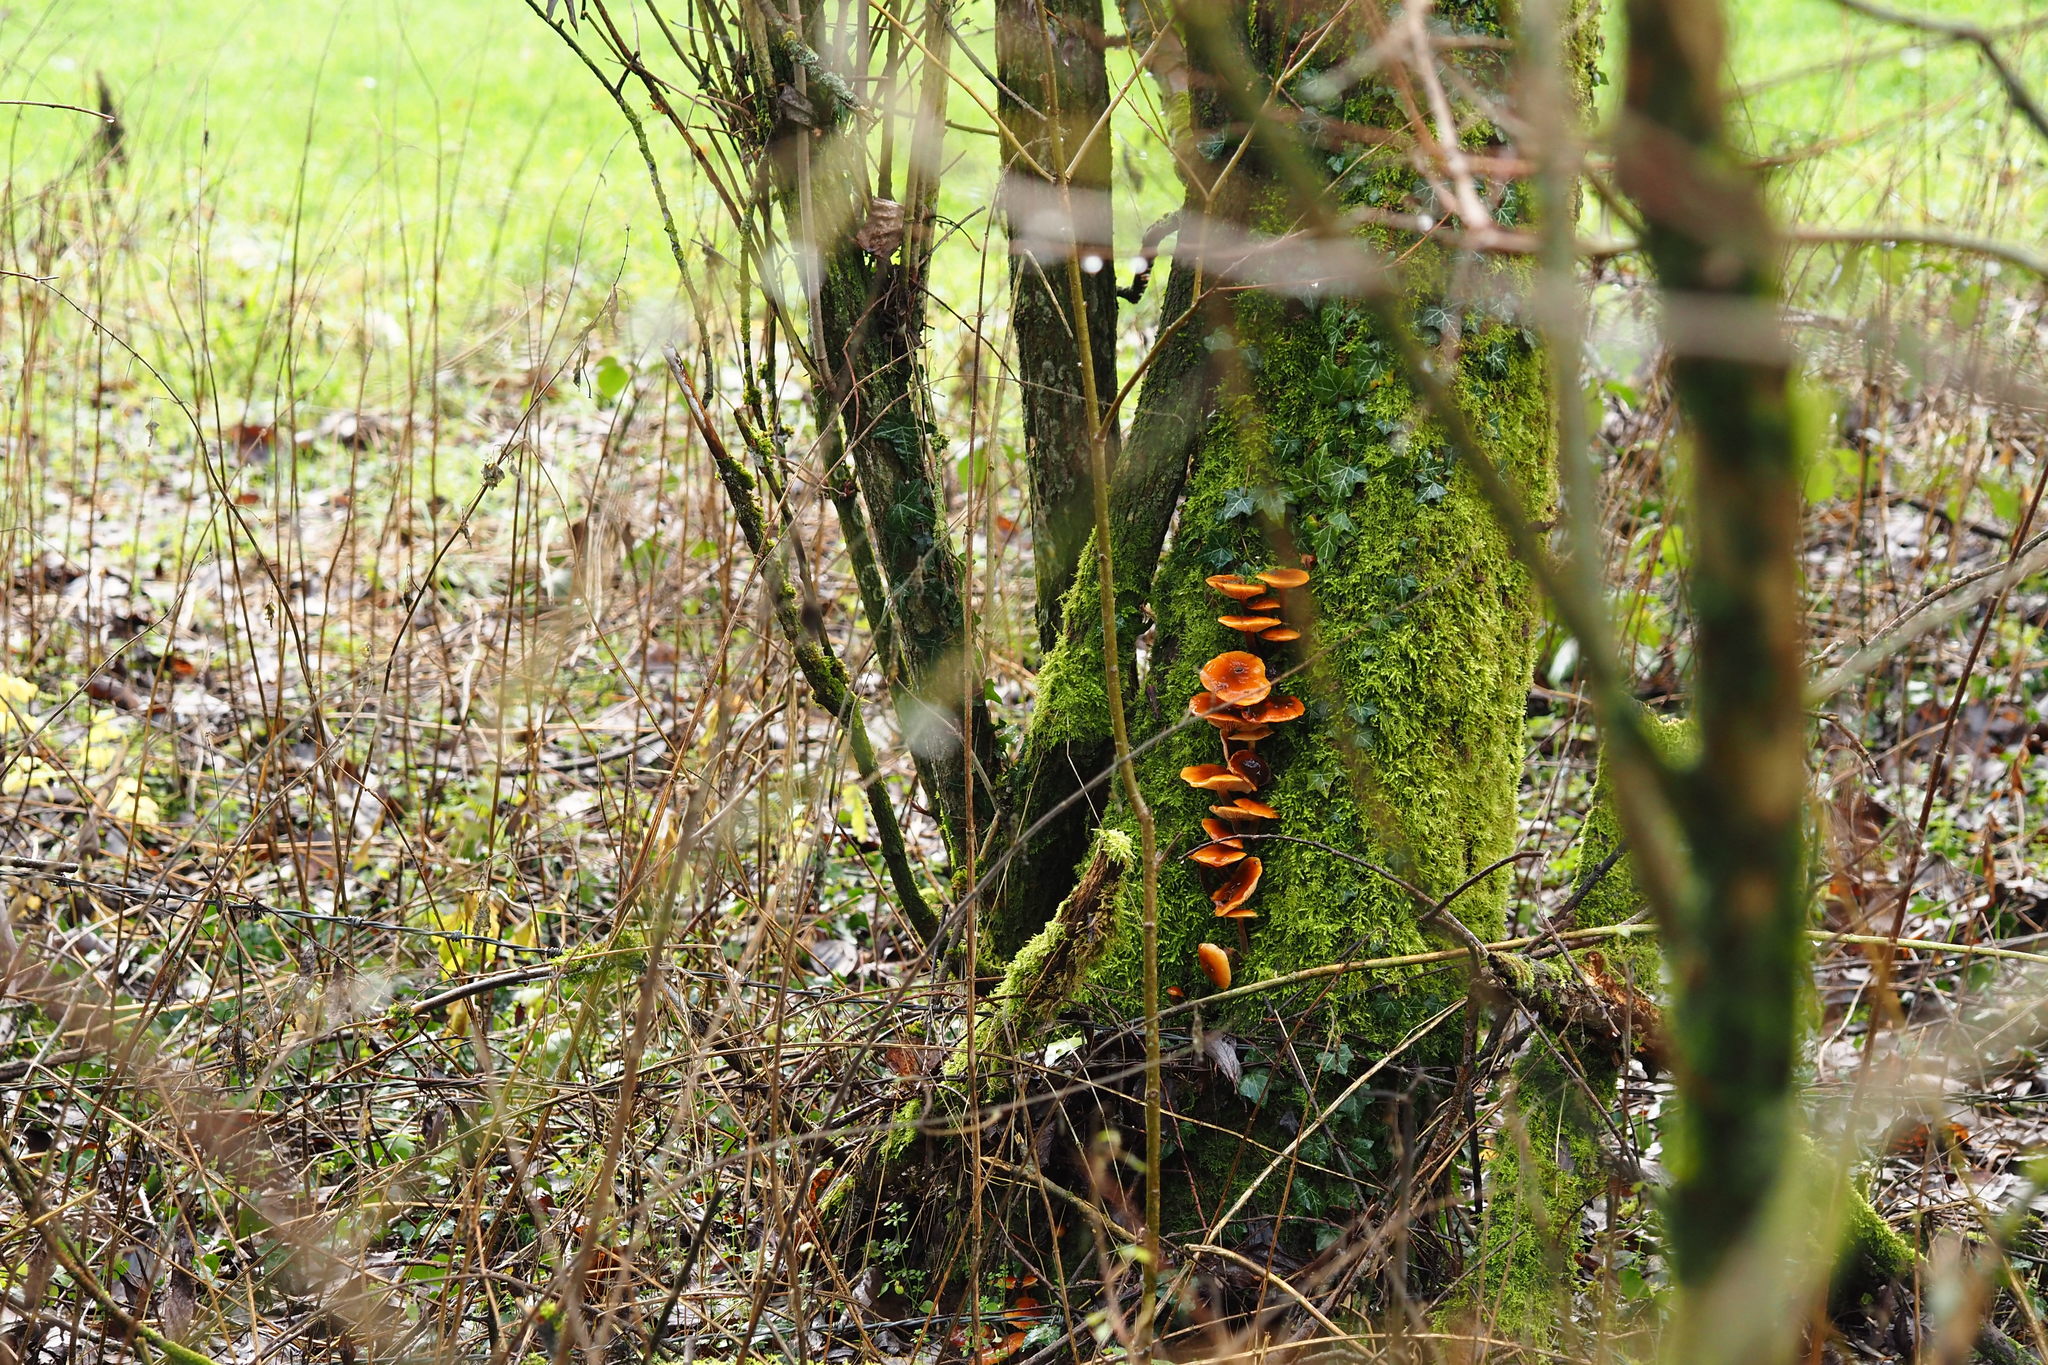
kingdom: Fungi
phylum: Basidiomycota
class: Agaricomycetes
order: Agaricales
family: Physalacriaceae
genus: Flammulina
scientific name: Flammulina
